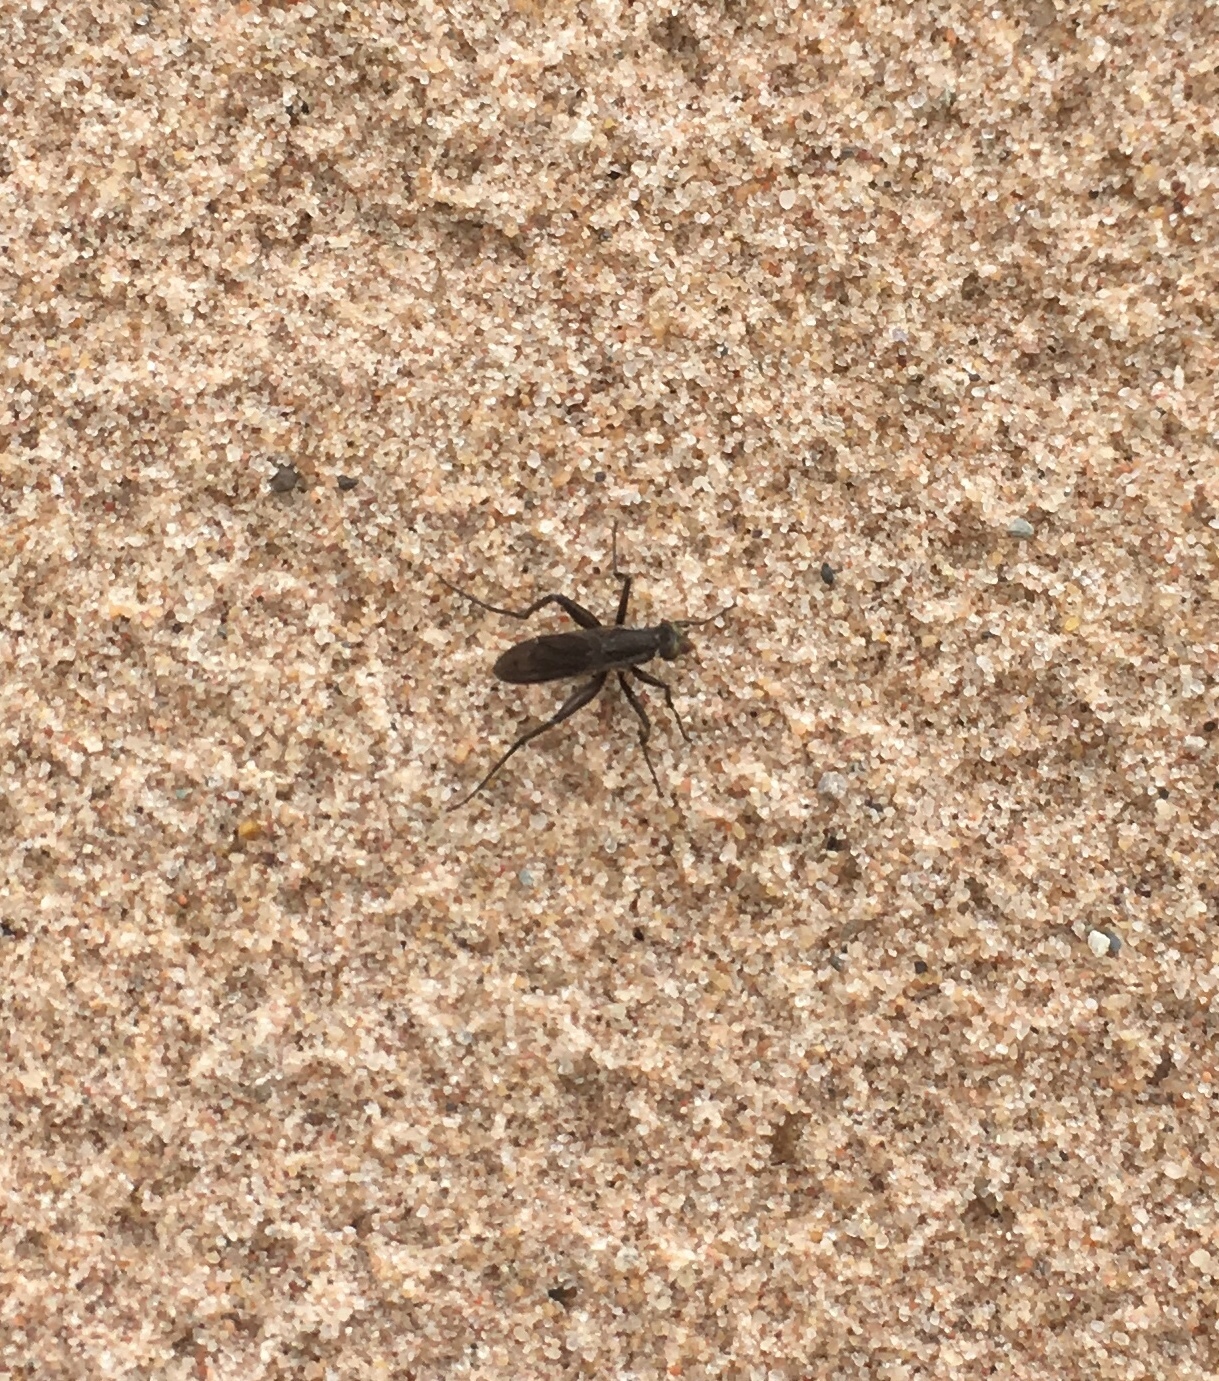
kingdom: Animalia
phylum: Arthropoda
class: Insecta
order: Hemiptera
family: Alydidae
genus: Alydus
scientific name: Alydus eurinus
